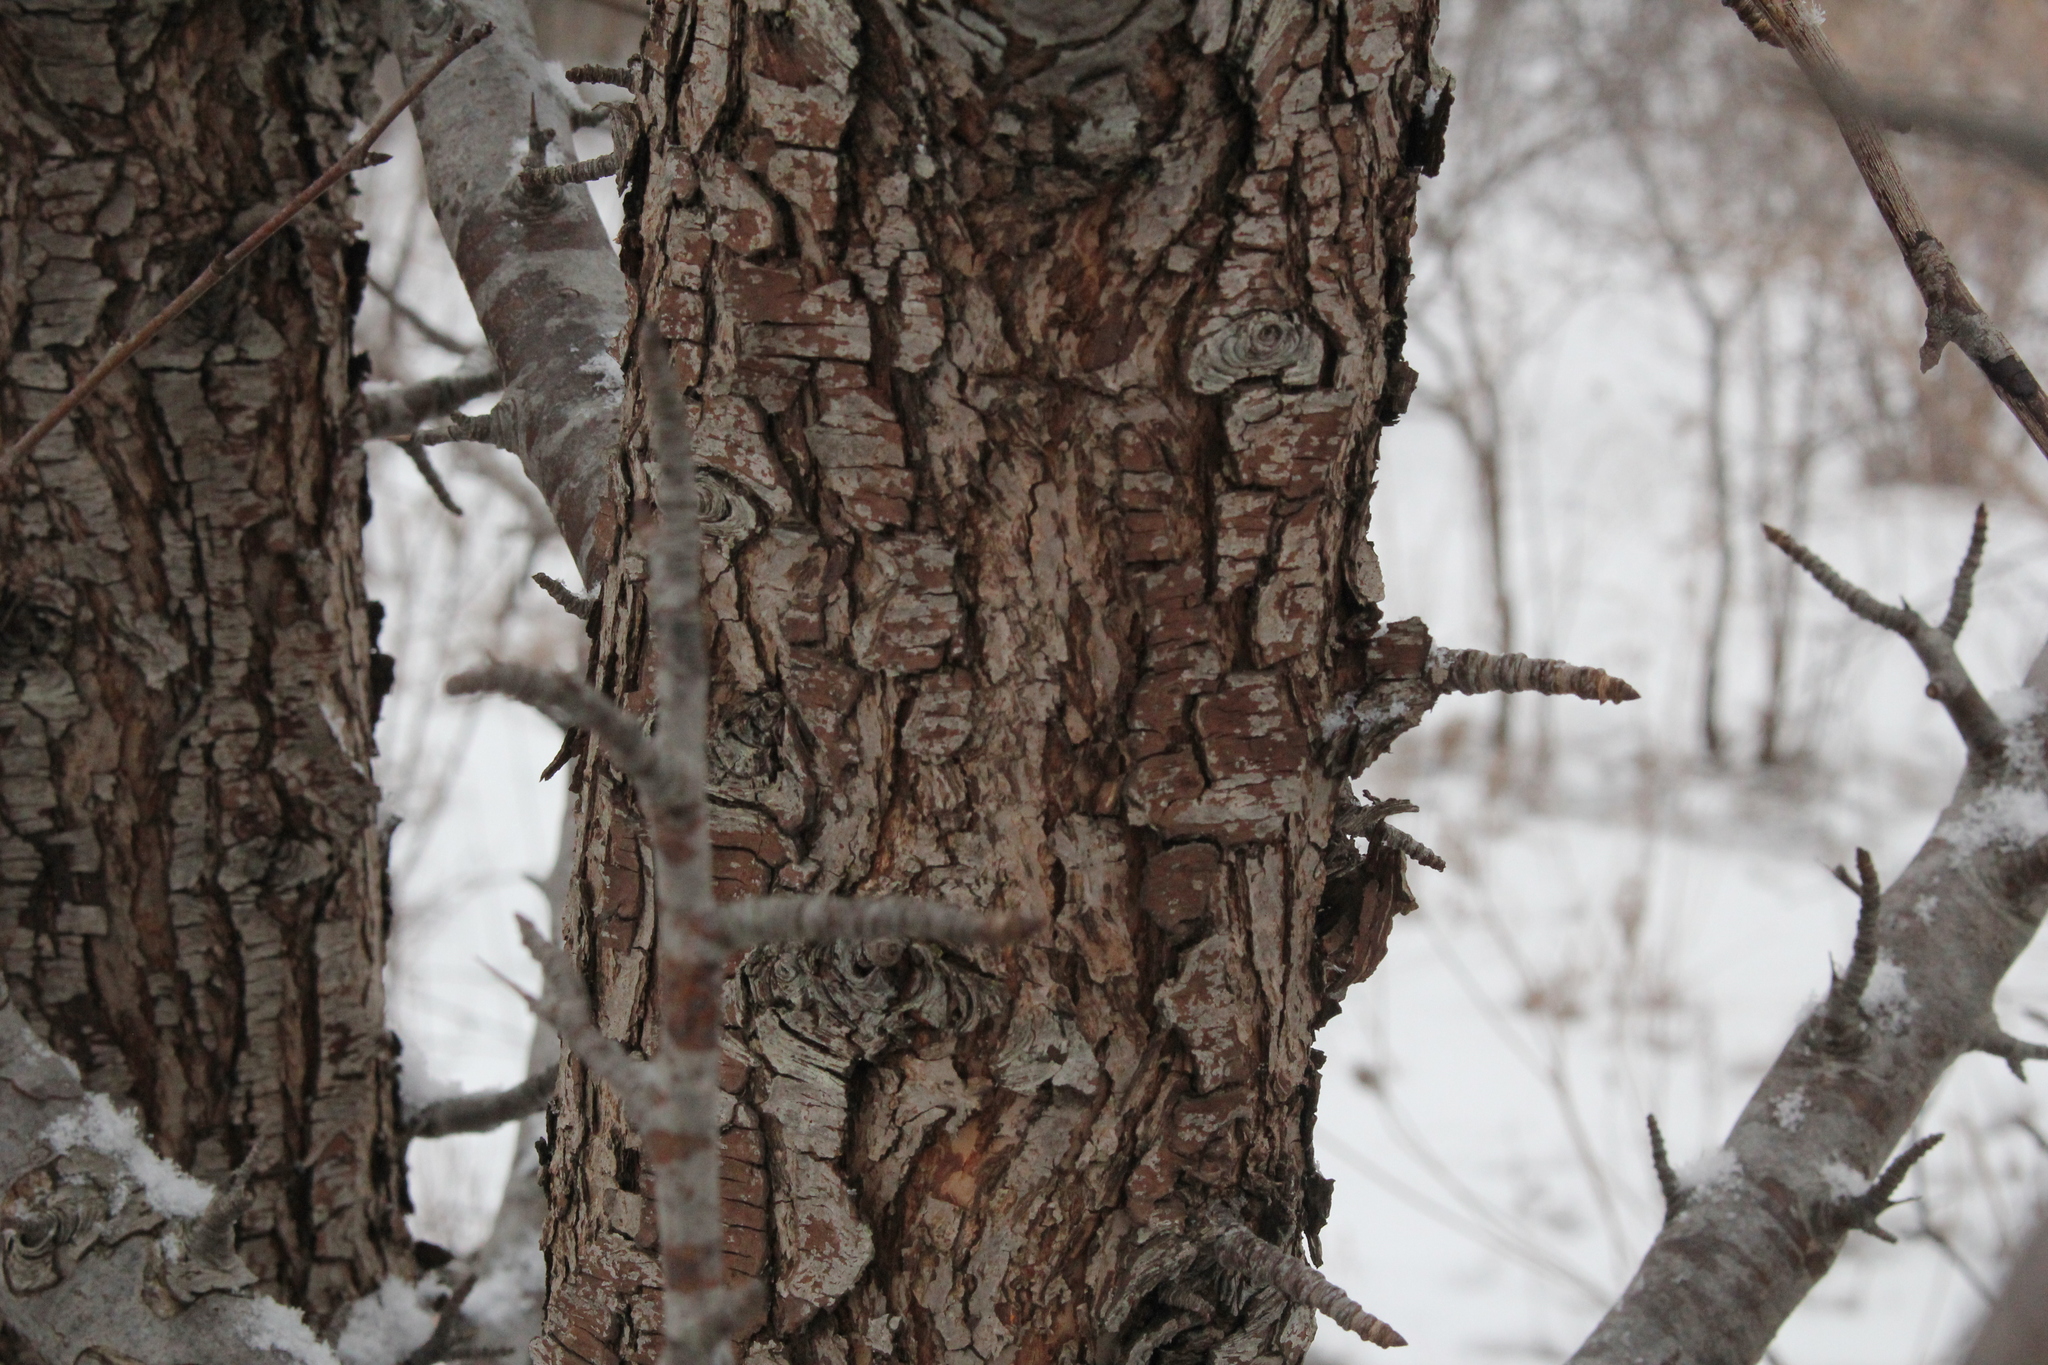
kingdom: Plantae
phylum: Tracheophyta
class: Magnoliopsida
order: Rosales
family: Rosaceae
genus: Pyrus
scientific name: Pyrus communis
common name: Pear
